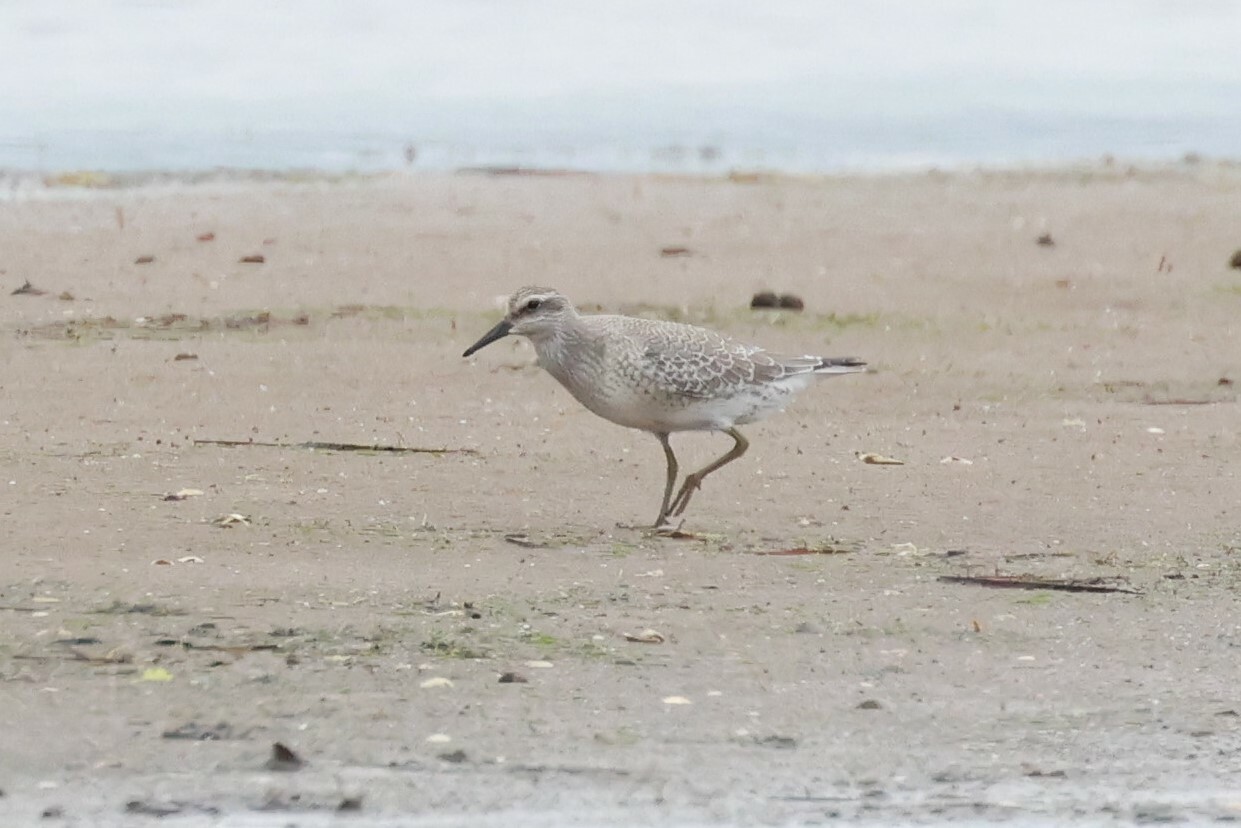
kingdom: Animalia
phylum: Chordata
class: Aves
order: Charadriiformes
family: Scolopacidae
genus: Calidris
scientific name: Calidris canutus
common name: Red knot
